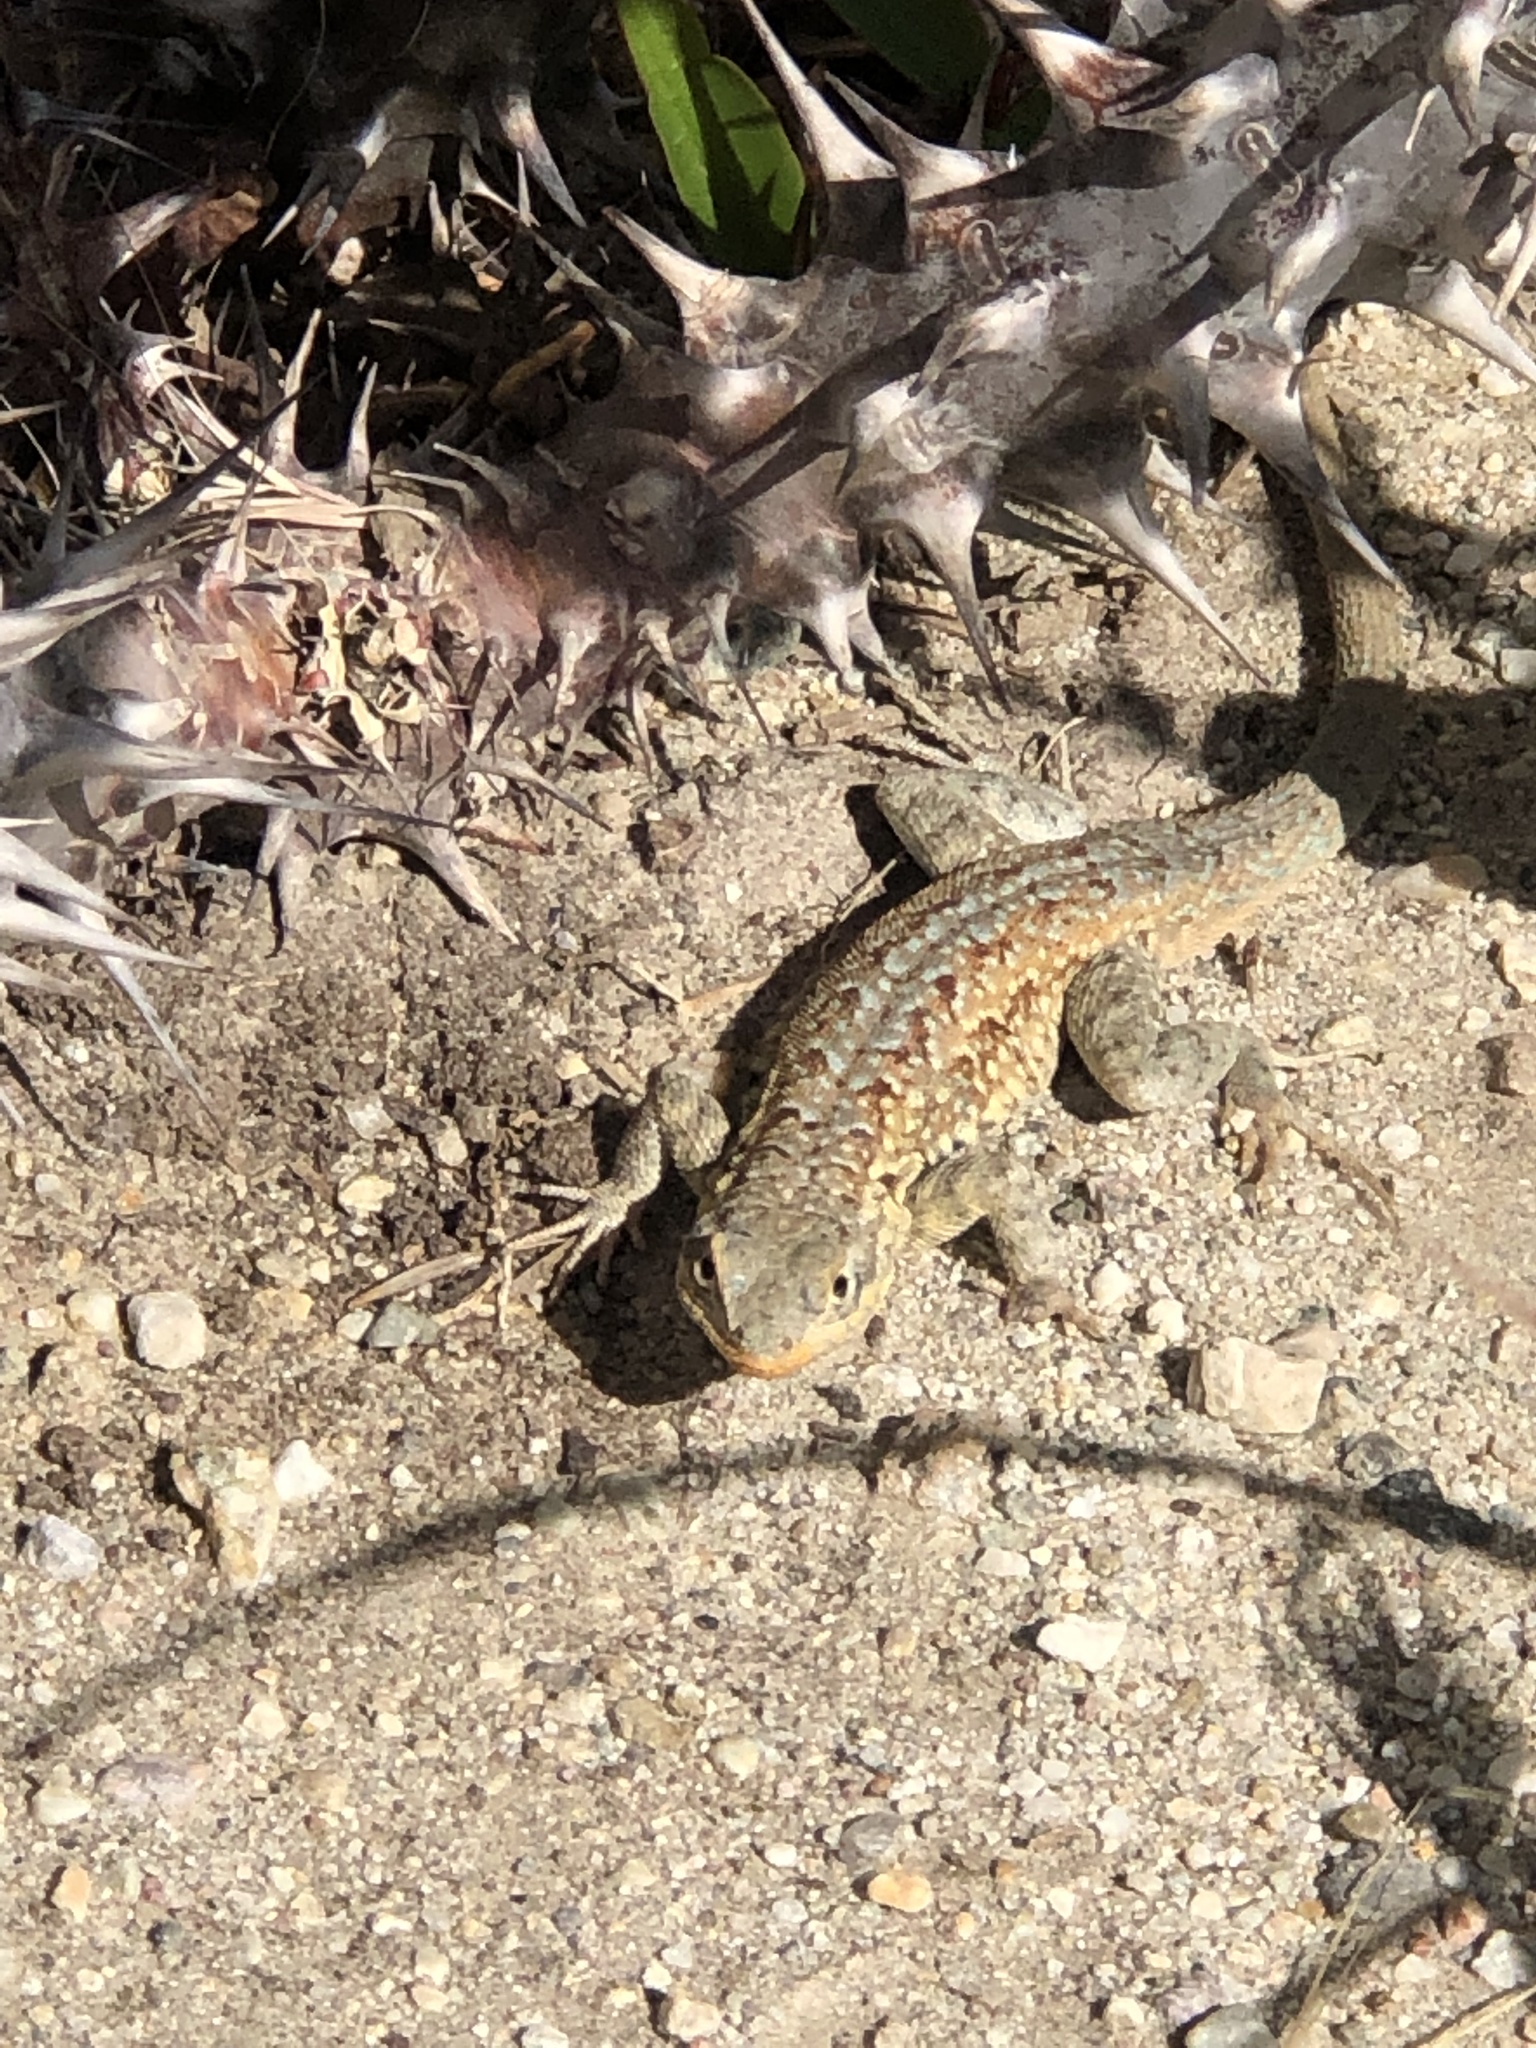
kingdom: Animalia
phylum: Chordata
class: Squamata
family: Phrynosomatidae
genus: Uta
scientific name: Uta stansburiana
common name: Side-blotched lizard
